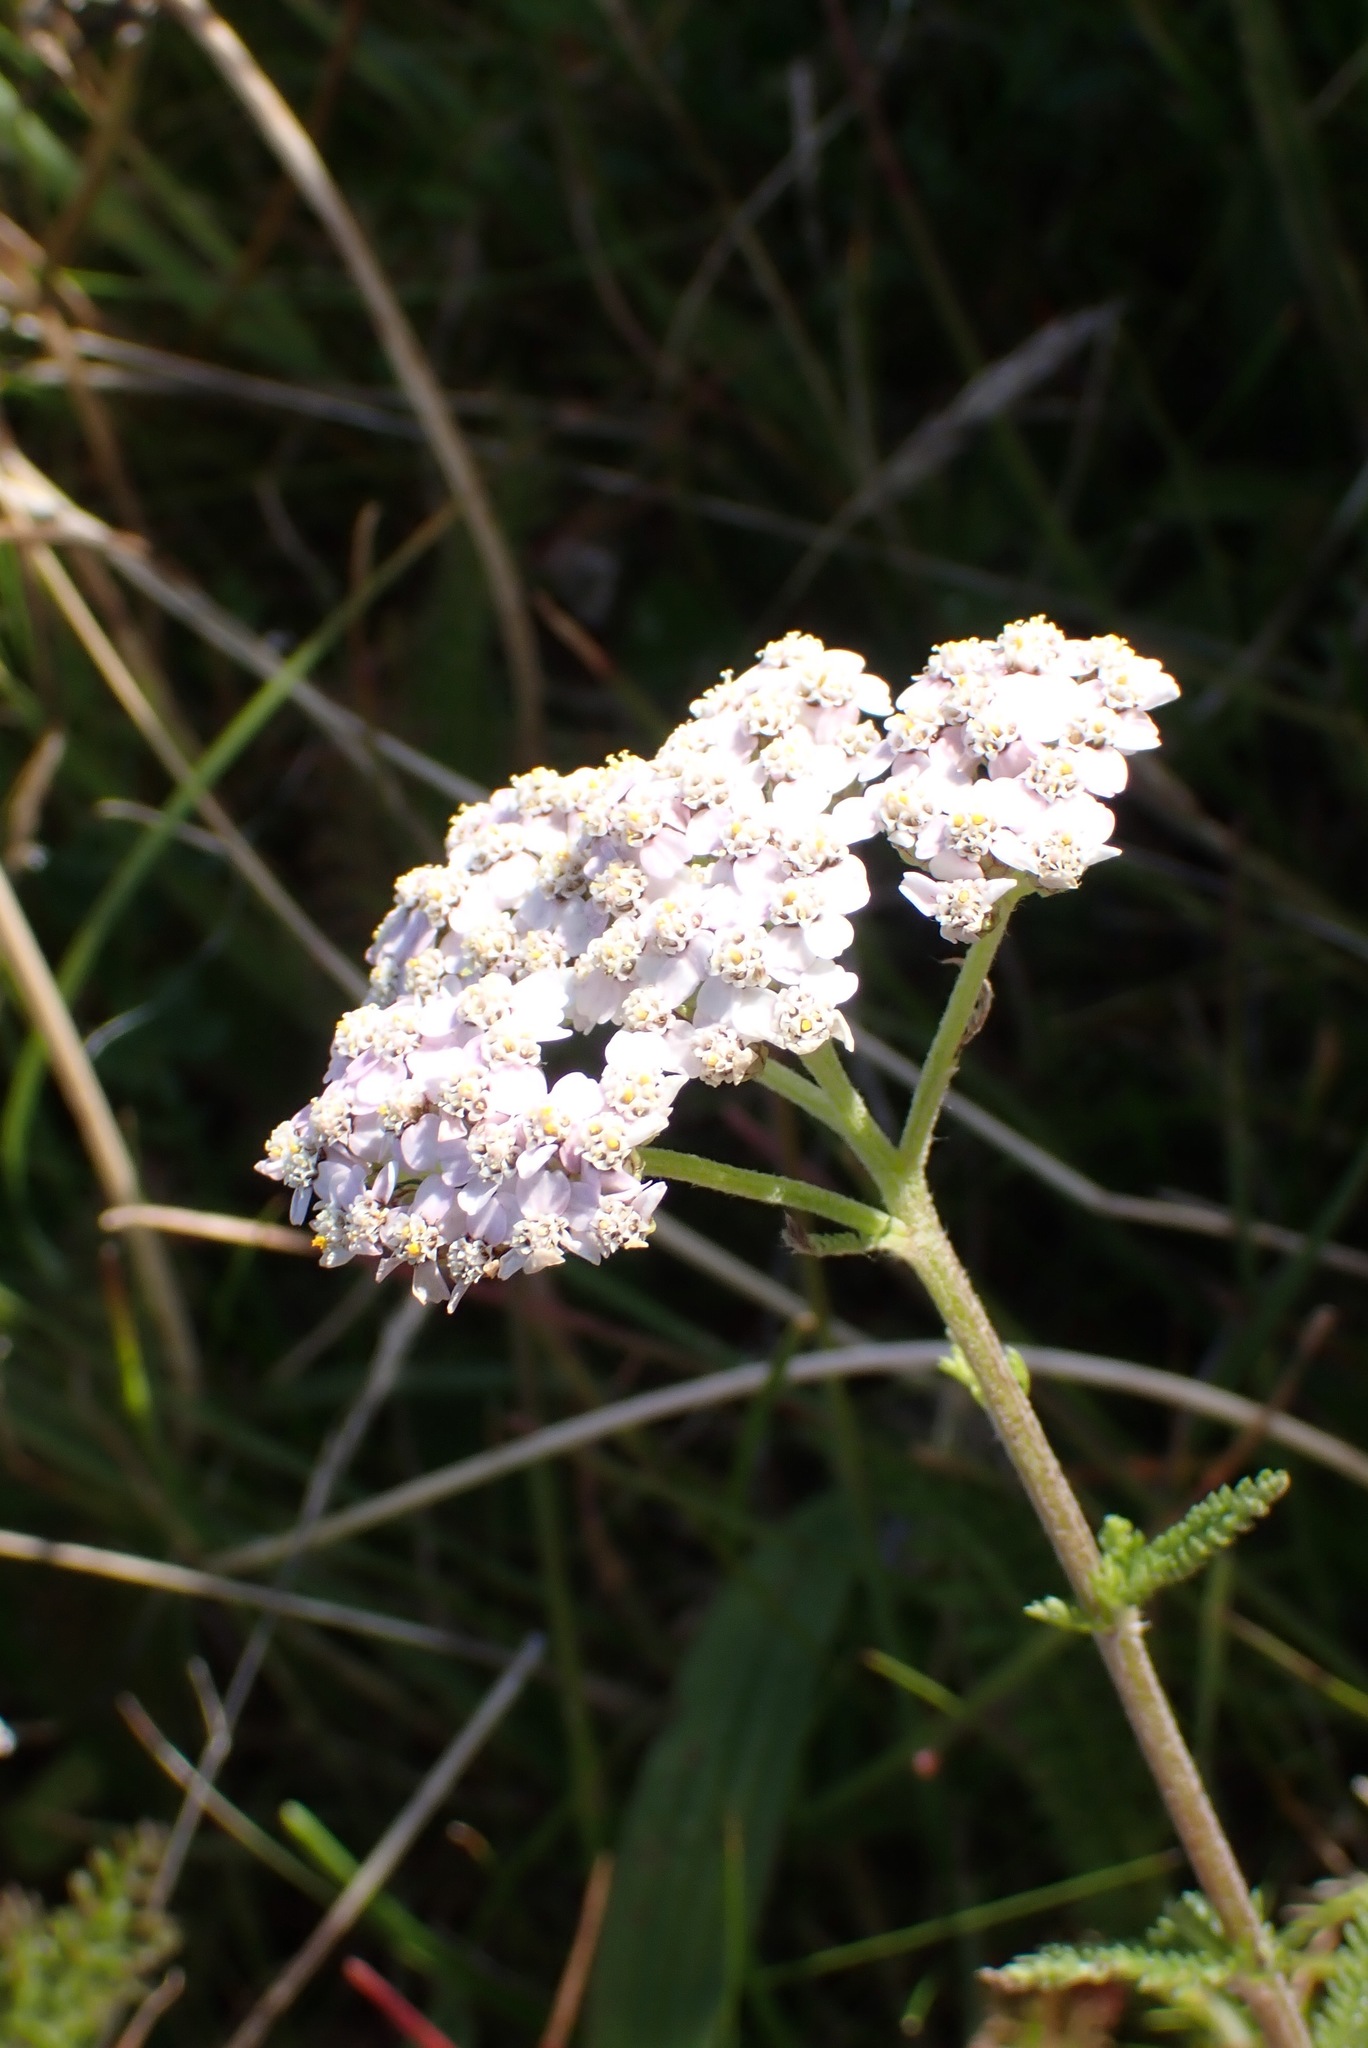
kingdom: Plantae
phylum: Tracheophyta
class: Magnoliopsida
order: Asterales
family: Asteraceae
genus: Achillea
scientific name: Achillea millefolium
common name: Yarrow
